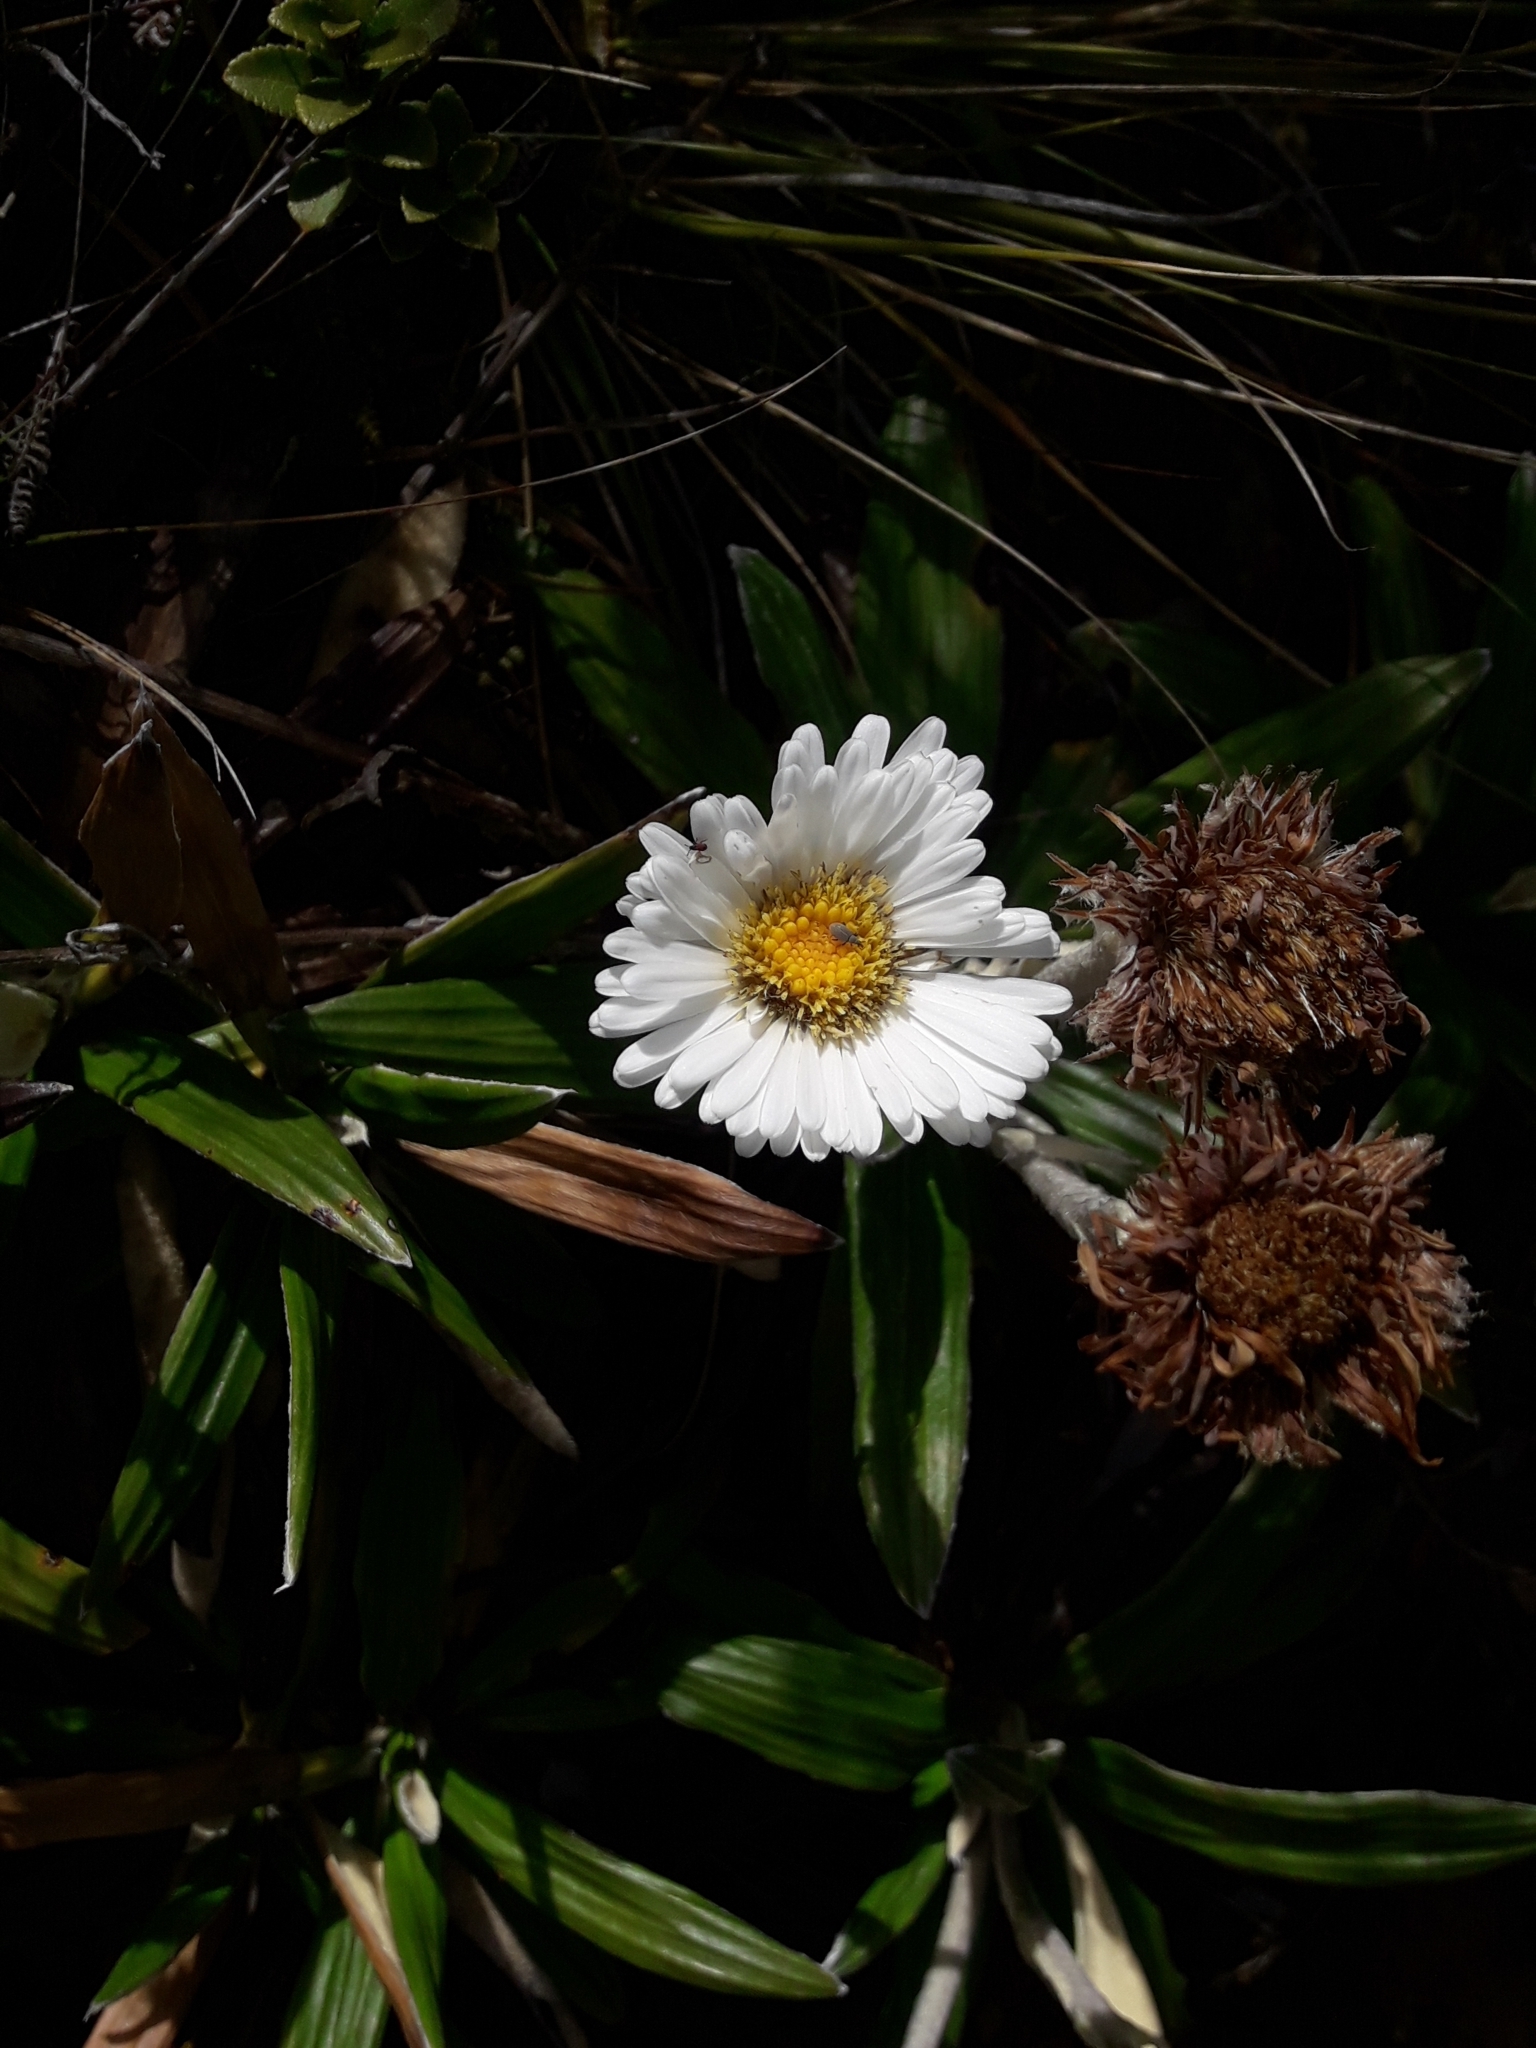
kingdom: Plantae
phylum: Tracheophyta
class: Magnoliopsida
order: Asterales
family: Asteraceae
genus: Celmisia
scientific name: Celmisia spectabilis
